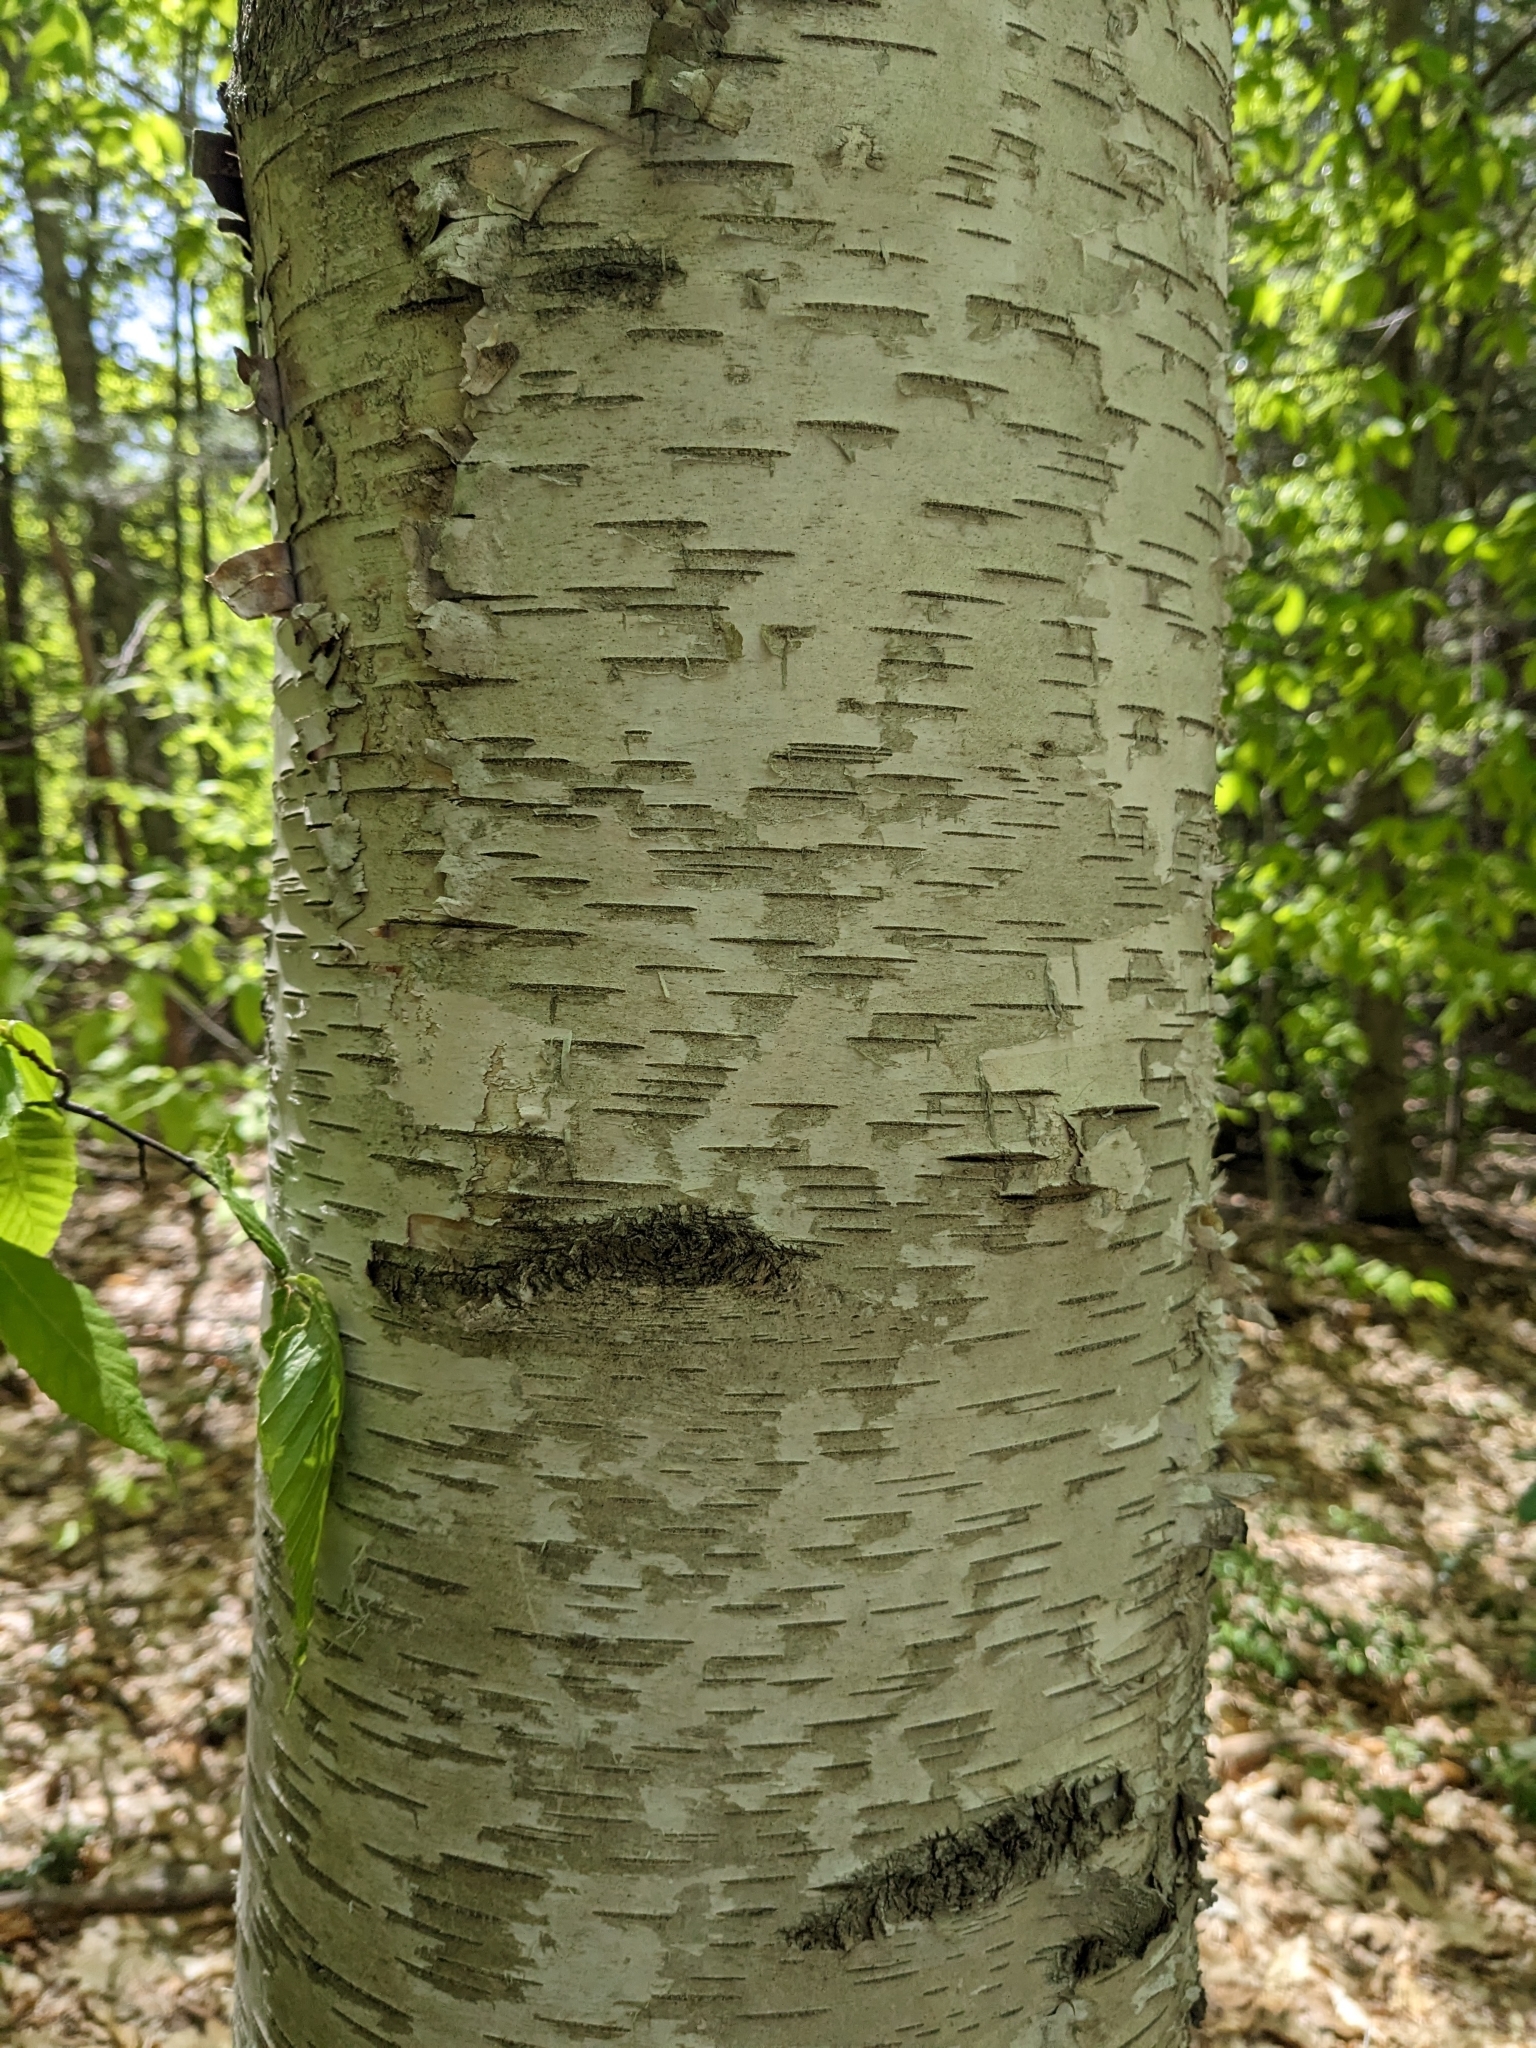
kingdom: Plantae
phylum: Tracheophyta
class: Magnoliopsida
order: Fagales
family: Betulaceae
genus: Betula
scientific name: Betula papyrifera
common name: Paper birch
